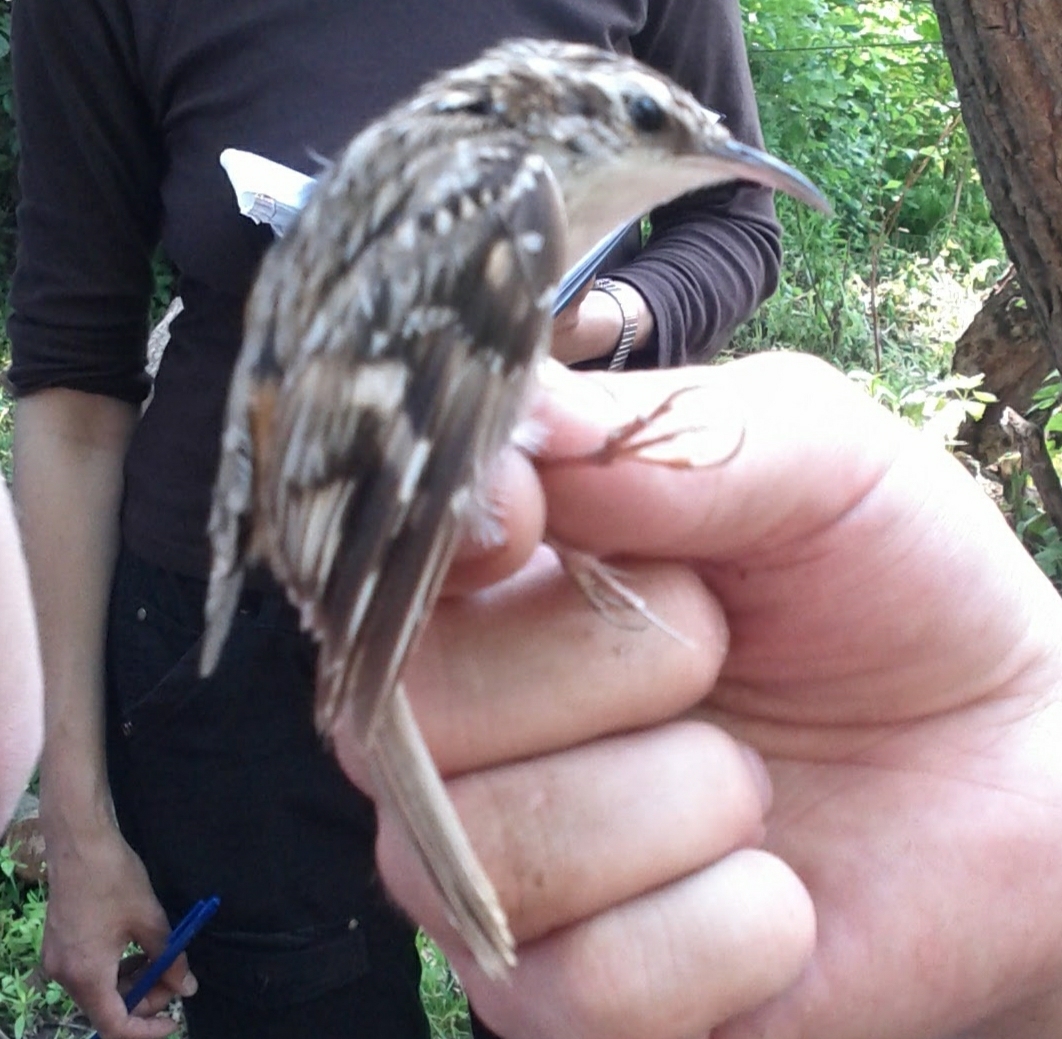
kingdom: Animalia
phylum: Chordata
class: Aves
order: Passeriformes
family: Certhiidae
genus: Certhia
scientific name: Certhia familiaris
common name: Eurasian treecreeper
